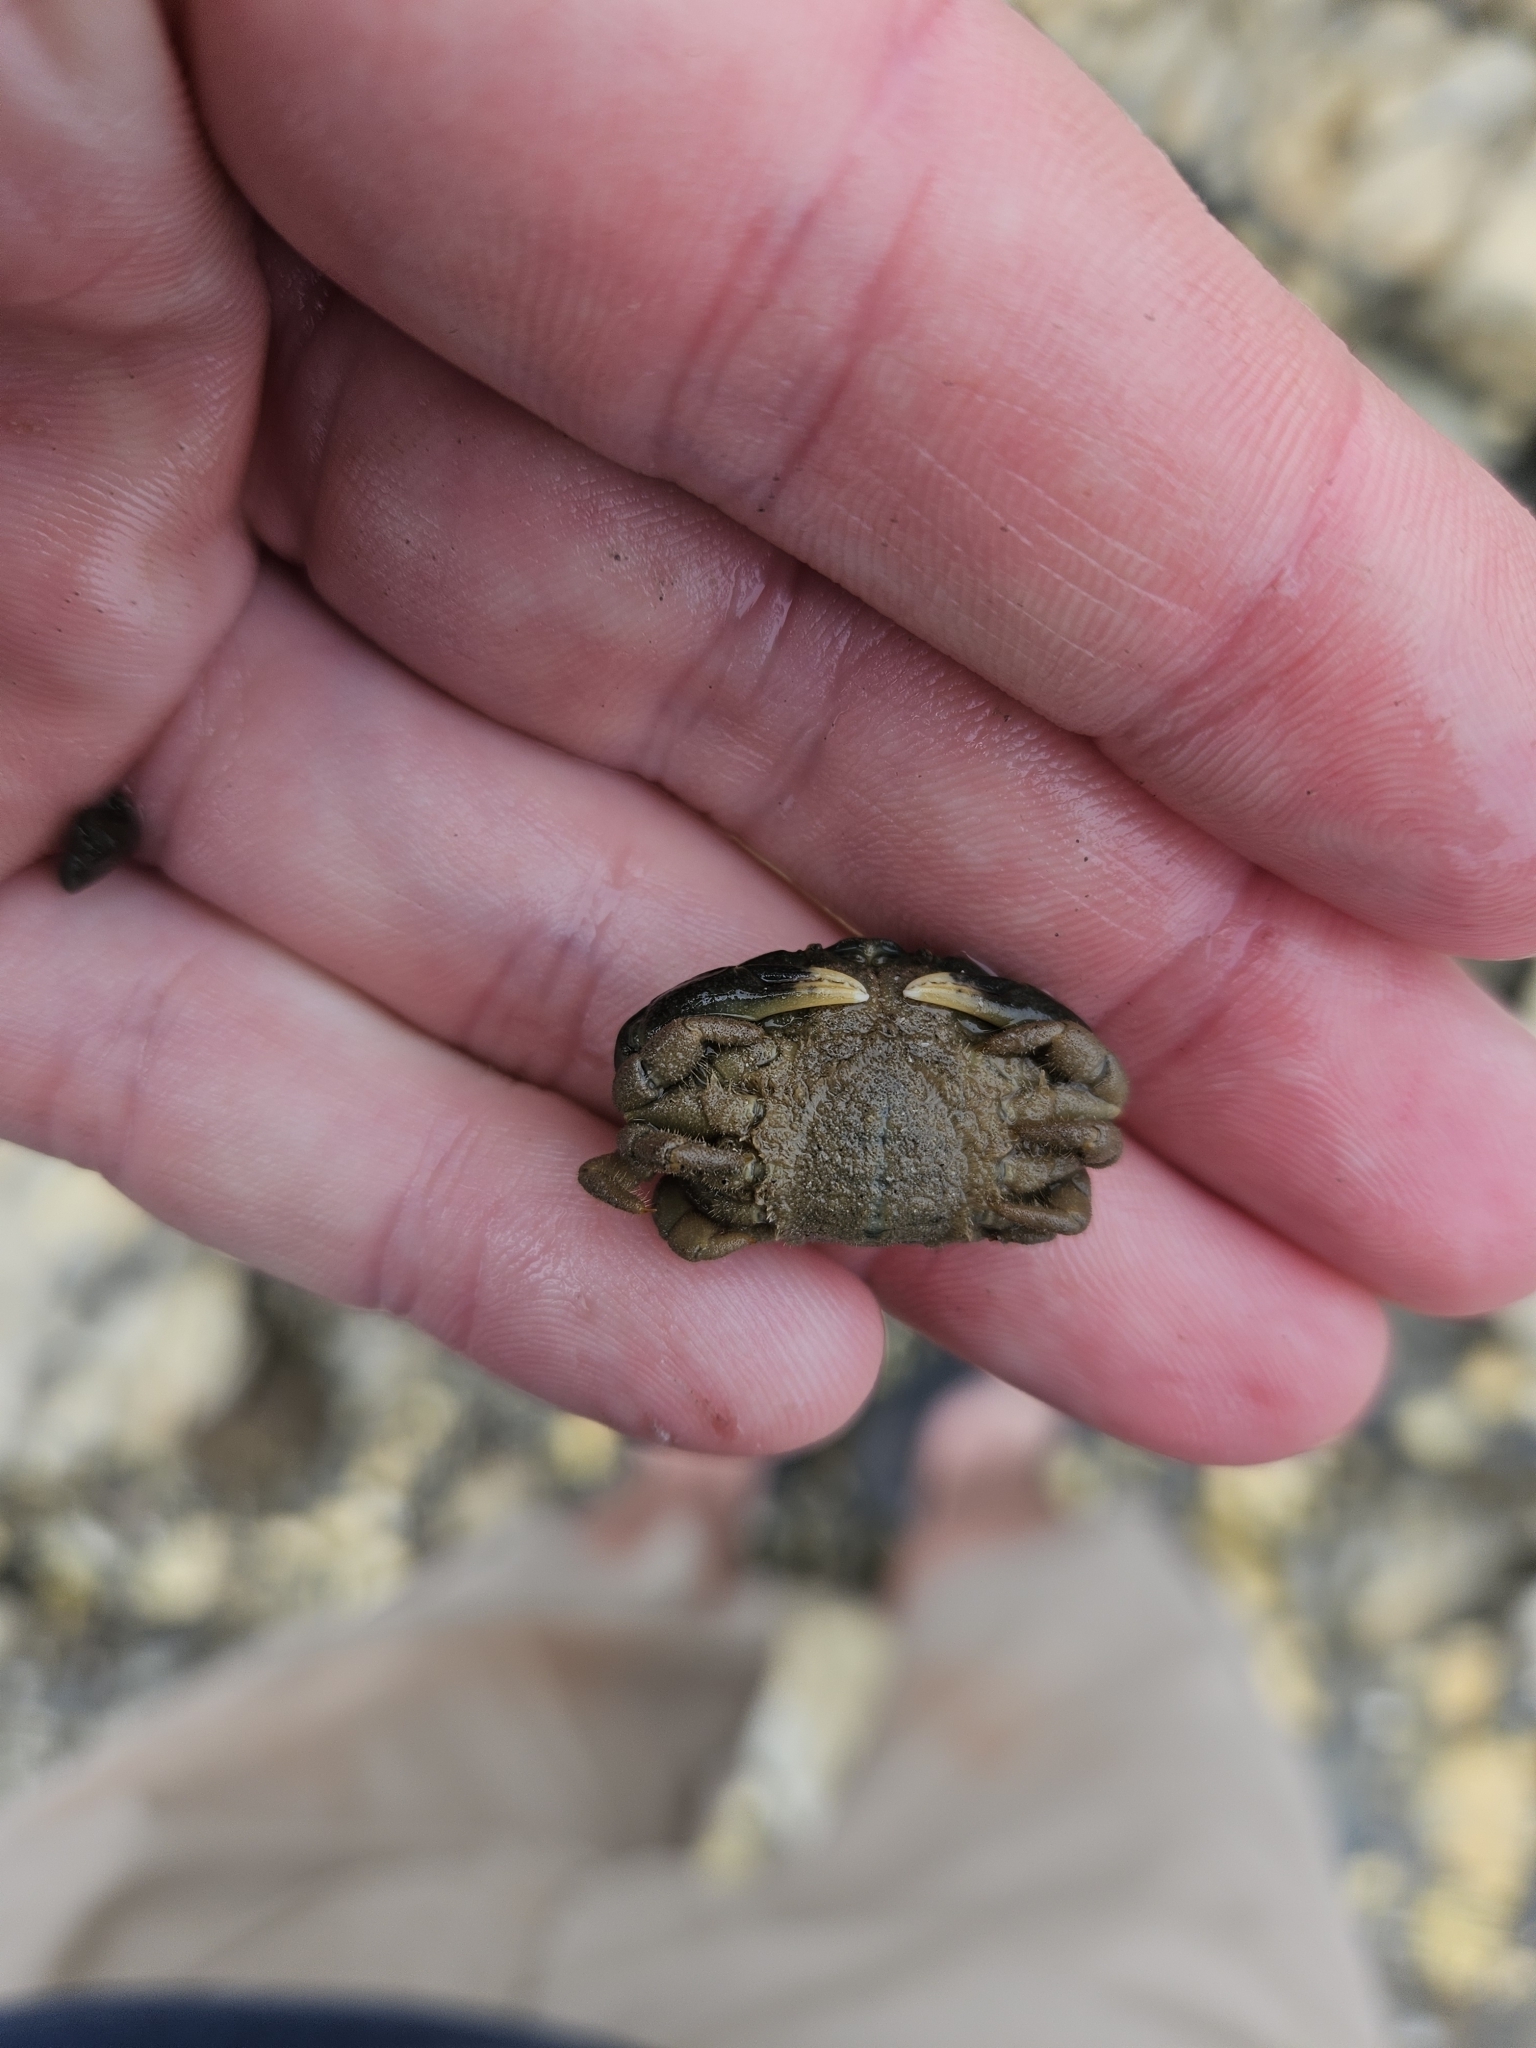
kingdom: Animalia
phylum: Arthropoda
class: Malacostraca
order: Decapoda
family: Heteroziidae
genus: Heterozius
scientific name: Heterozius rotundifrons
